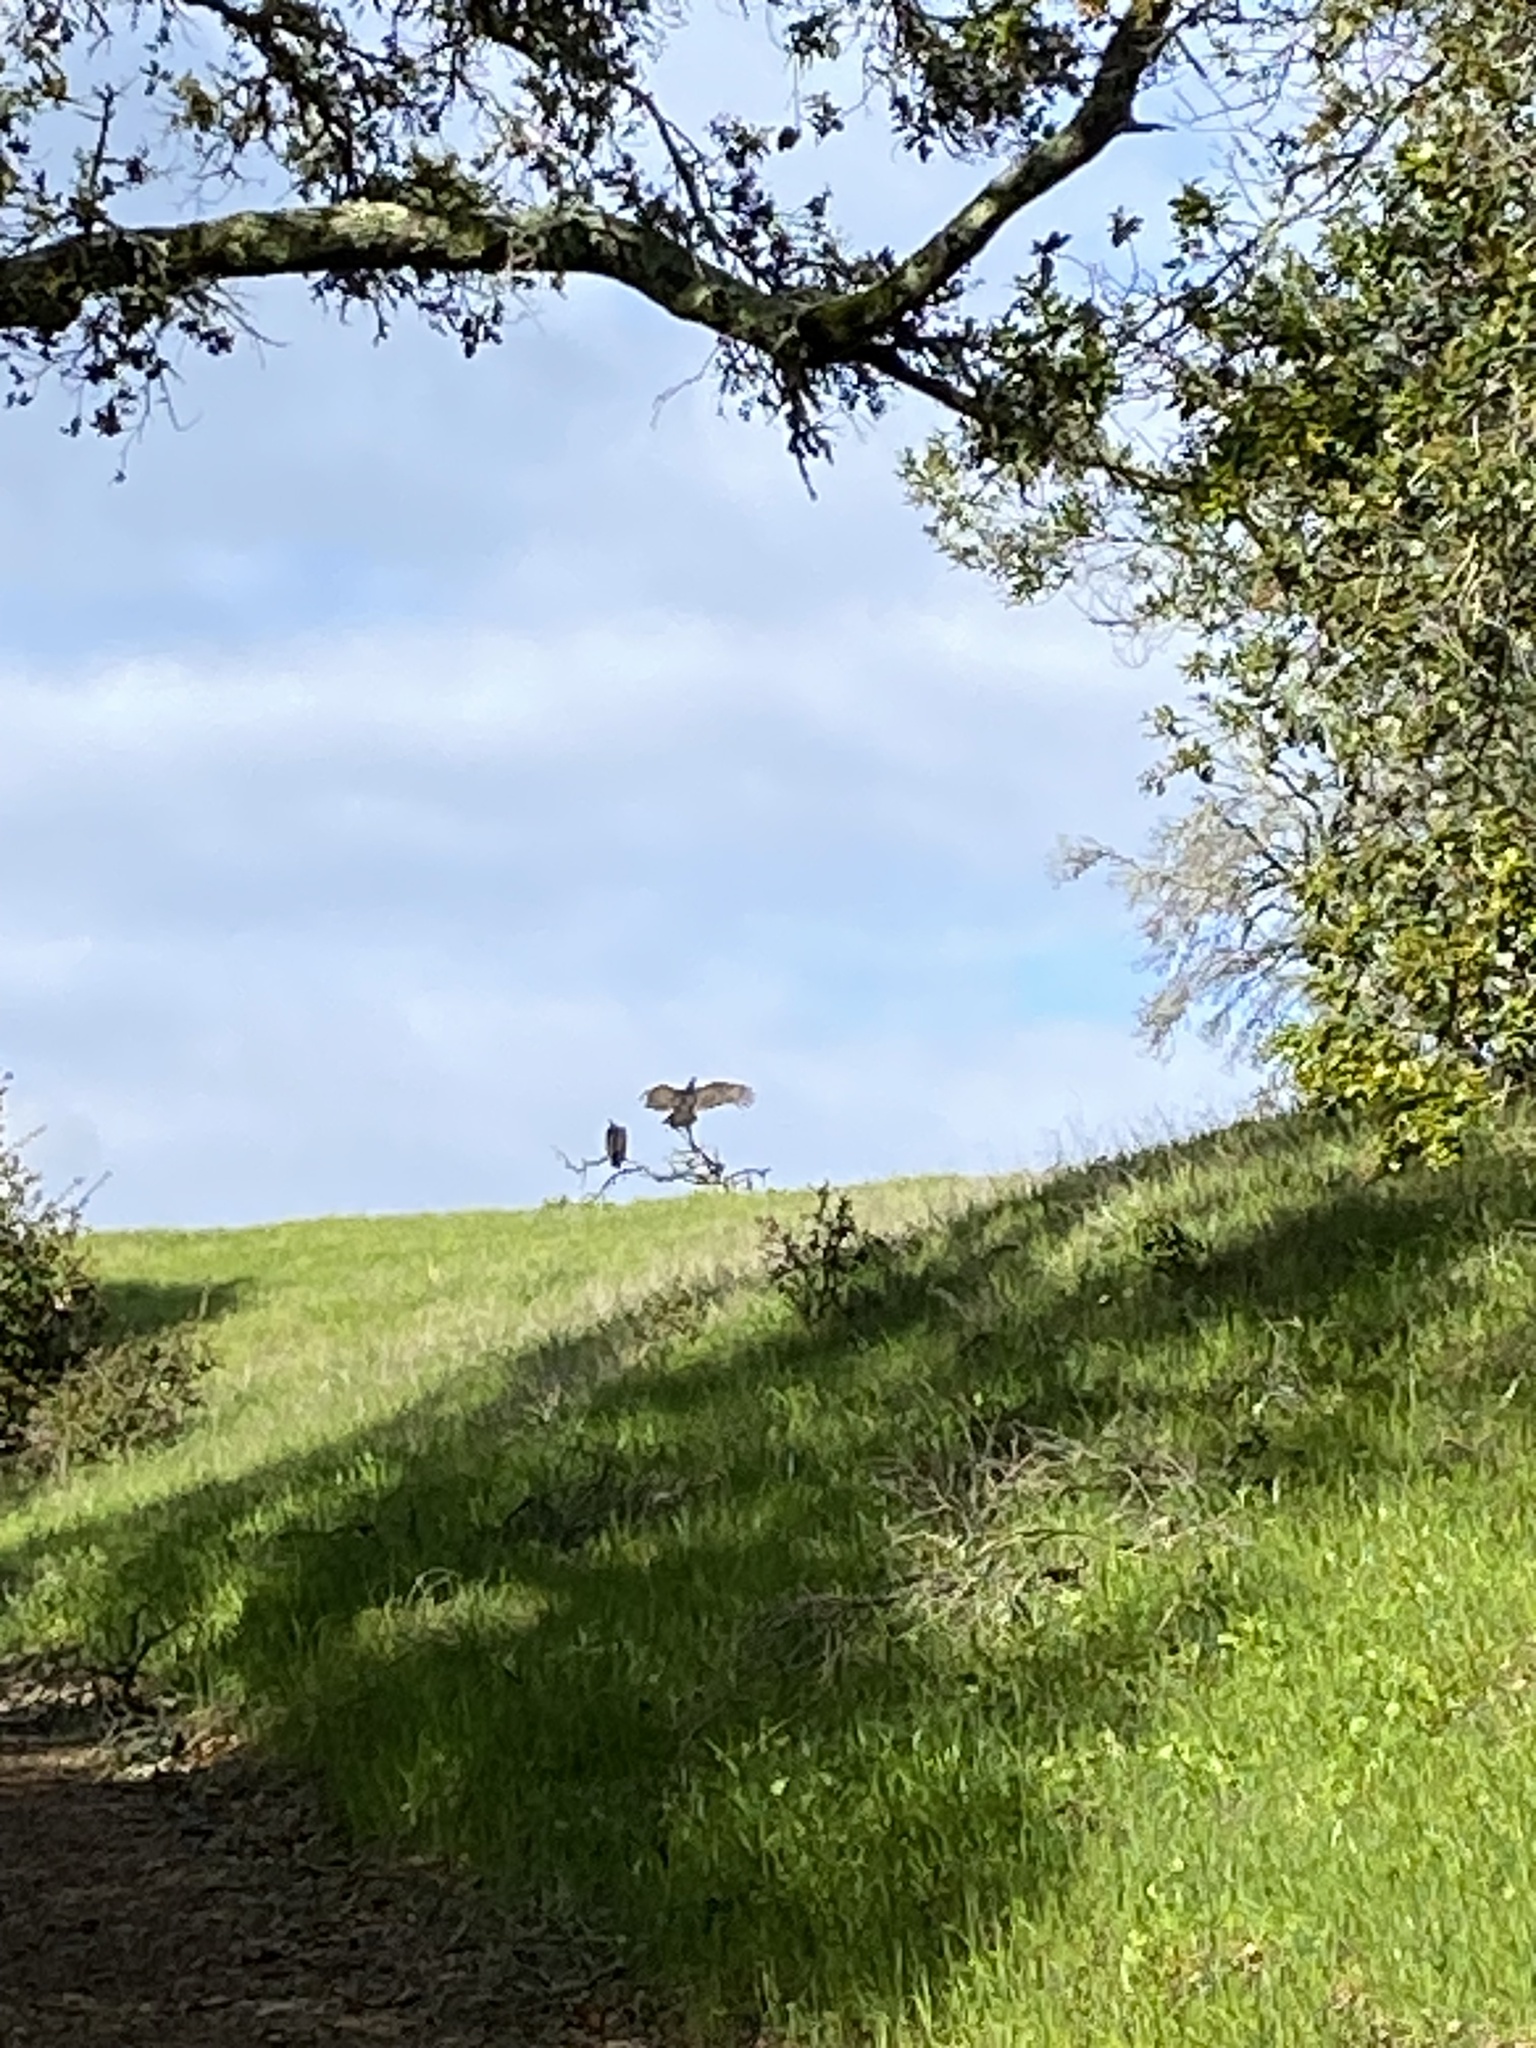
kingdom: Animalia
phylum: Chordata
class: Aves
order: Accipitriformes
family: Cathartidae
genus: Cathartes
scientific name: Cathartes aura
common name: Turkey vulture
